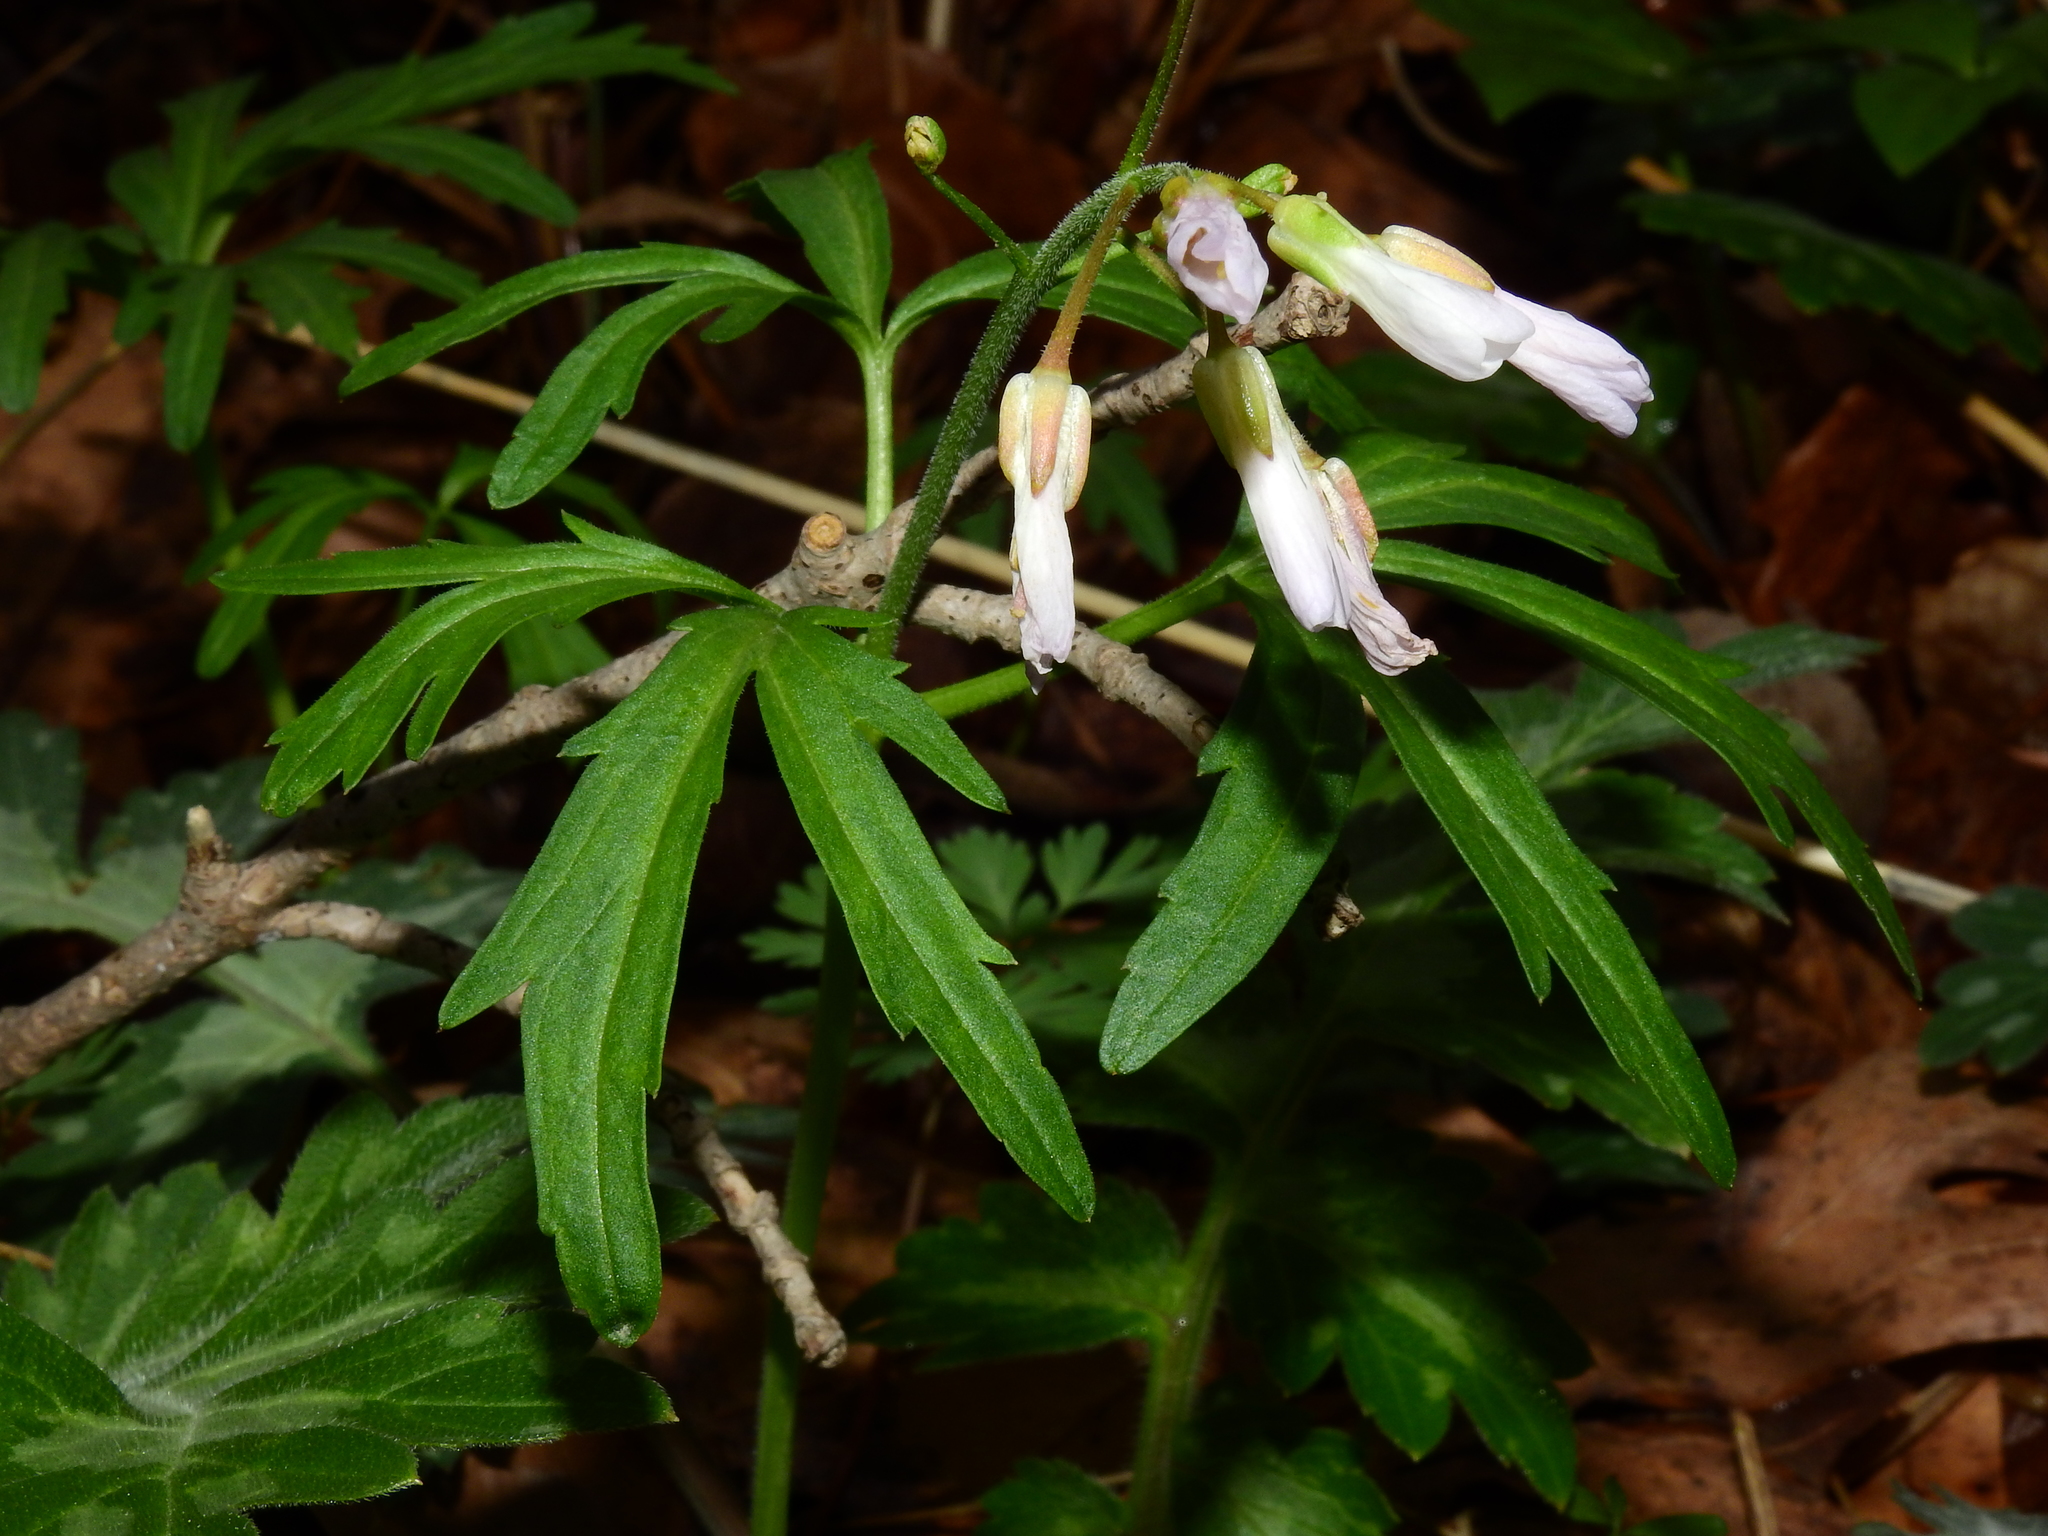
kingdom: Plantae
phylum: Tracheophyta
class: Magnoliopsida
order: Brassicales
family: Brassicaceae
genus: Cardamine
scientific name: Cardamine concatenata
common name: Cut-leaf toothcup
